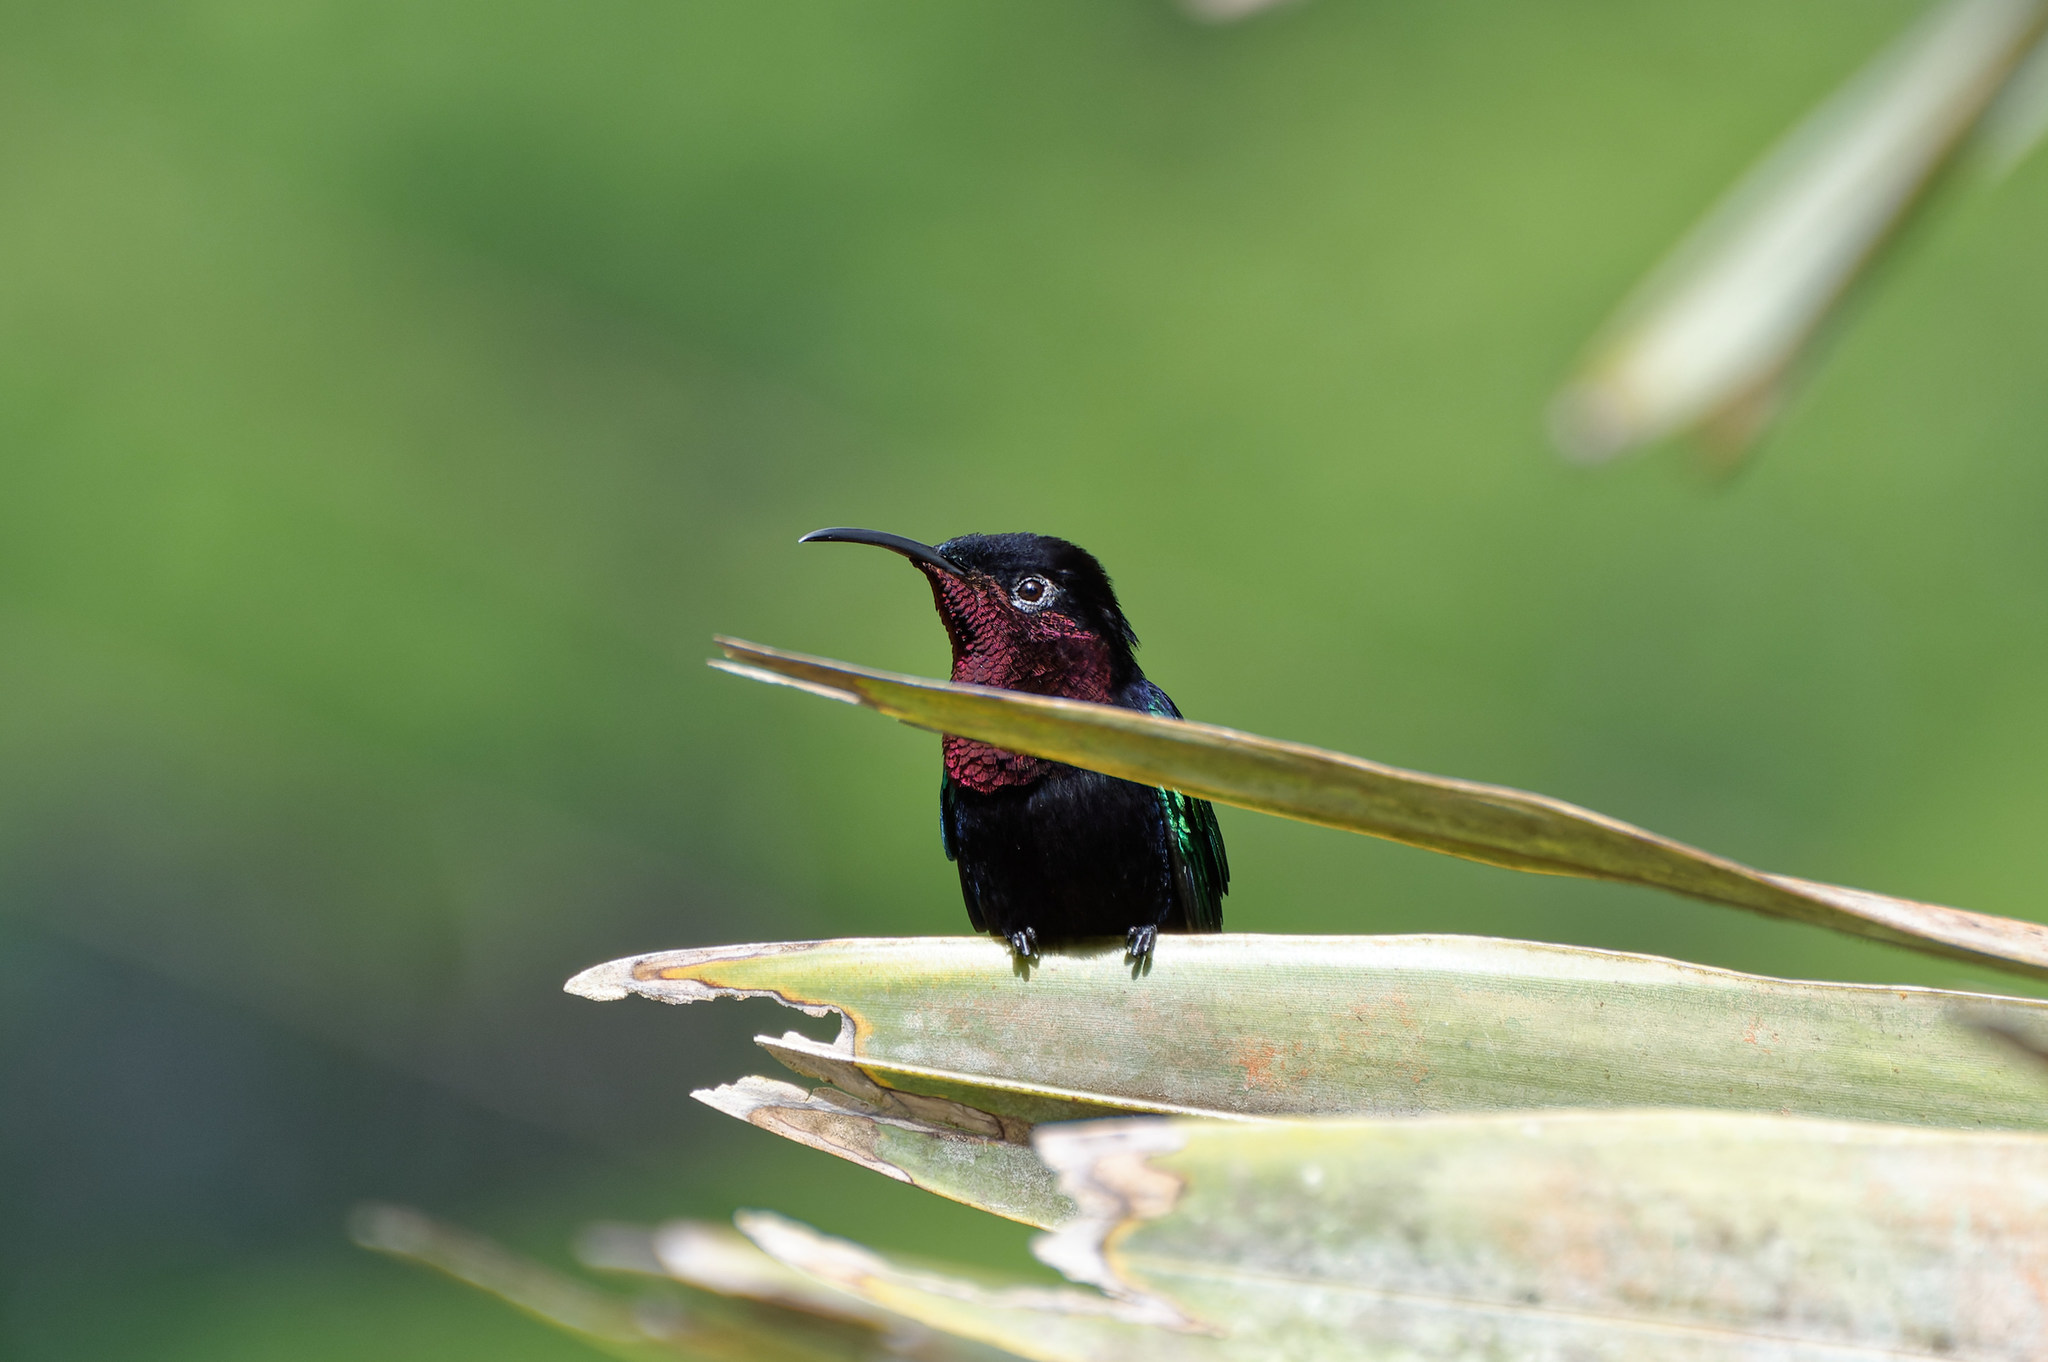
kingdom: Animalia
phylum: Chordata
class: Aves
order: Apodiformes
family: Trochilidae
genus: Eulampis
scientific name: Eulampis jugularis
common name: Purple-throated carib
